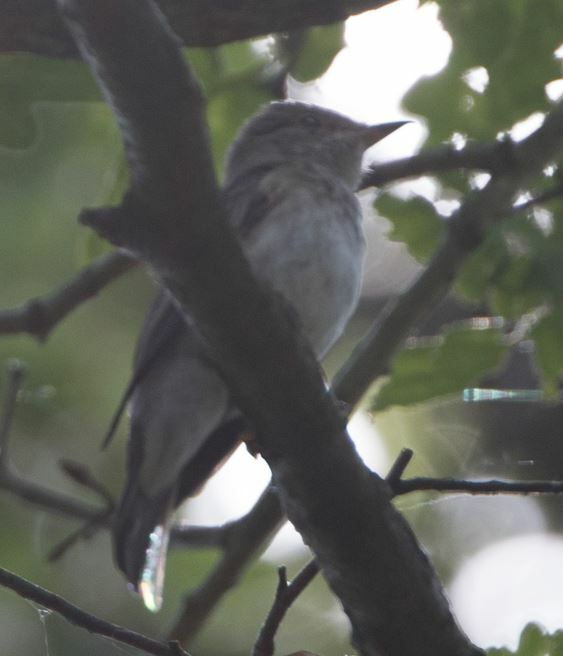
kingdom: Animalia
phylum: Chordata
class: Aves
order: Passeriformes
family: Muscicapidae
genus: Muscicapa
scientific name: Muscicapa striata
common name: Spotted flycatcher
